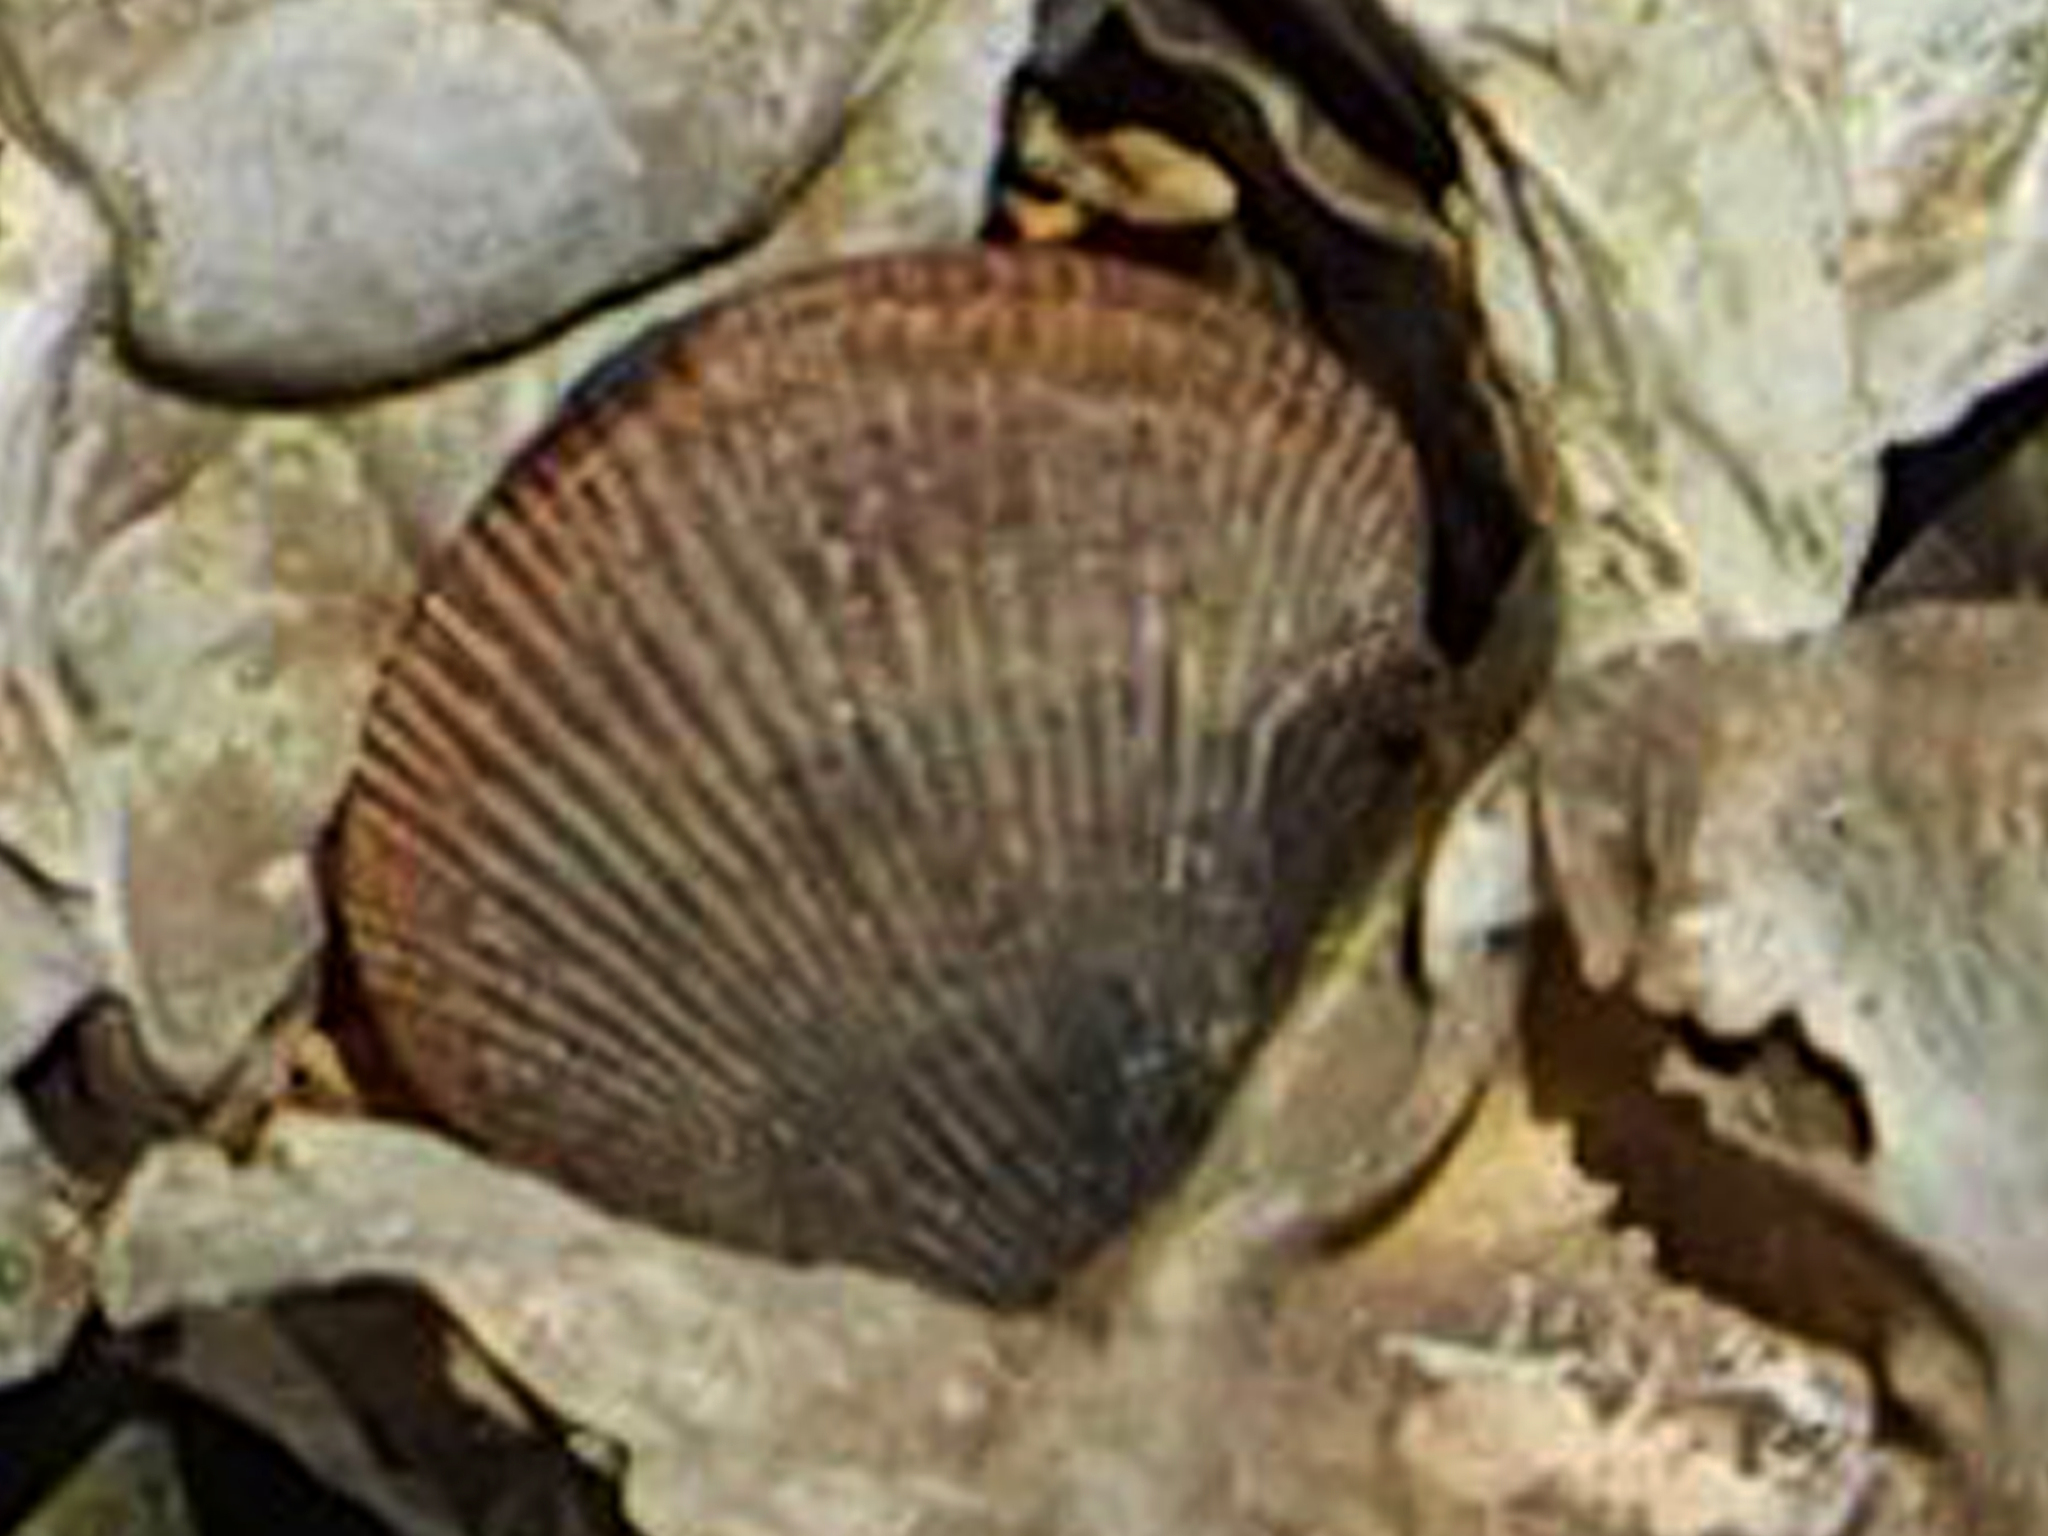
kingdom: Animalia
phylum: Mollusca
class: Bivalvia
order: Mytilida
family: Mytilidae
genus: Ischadium
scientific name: Ischadium recurvum
